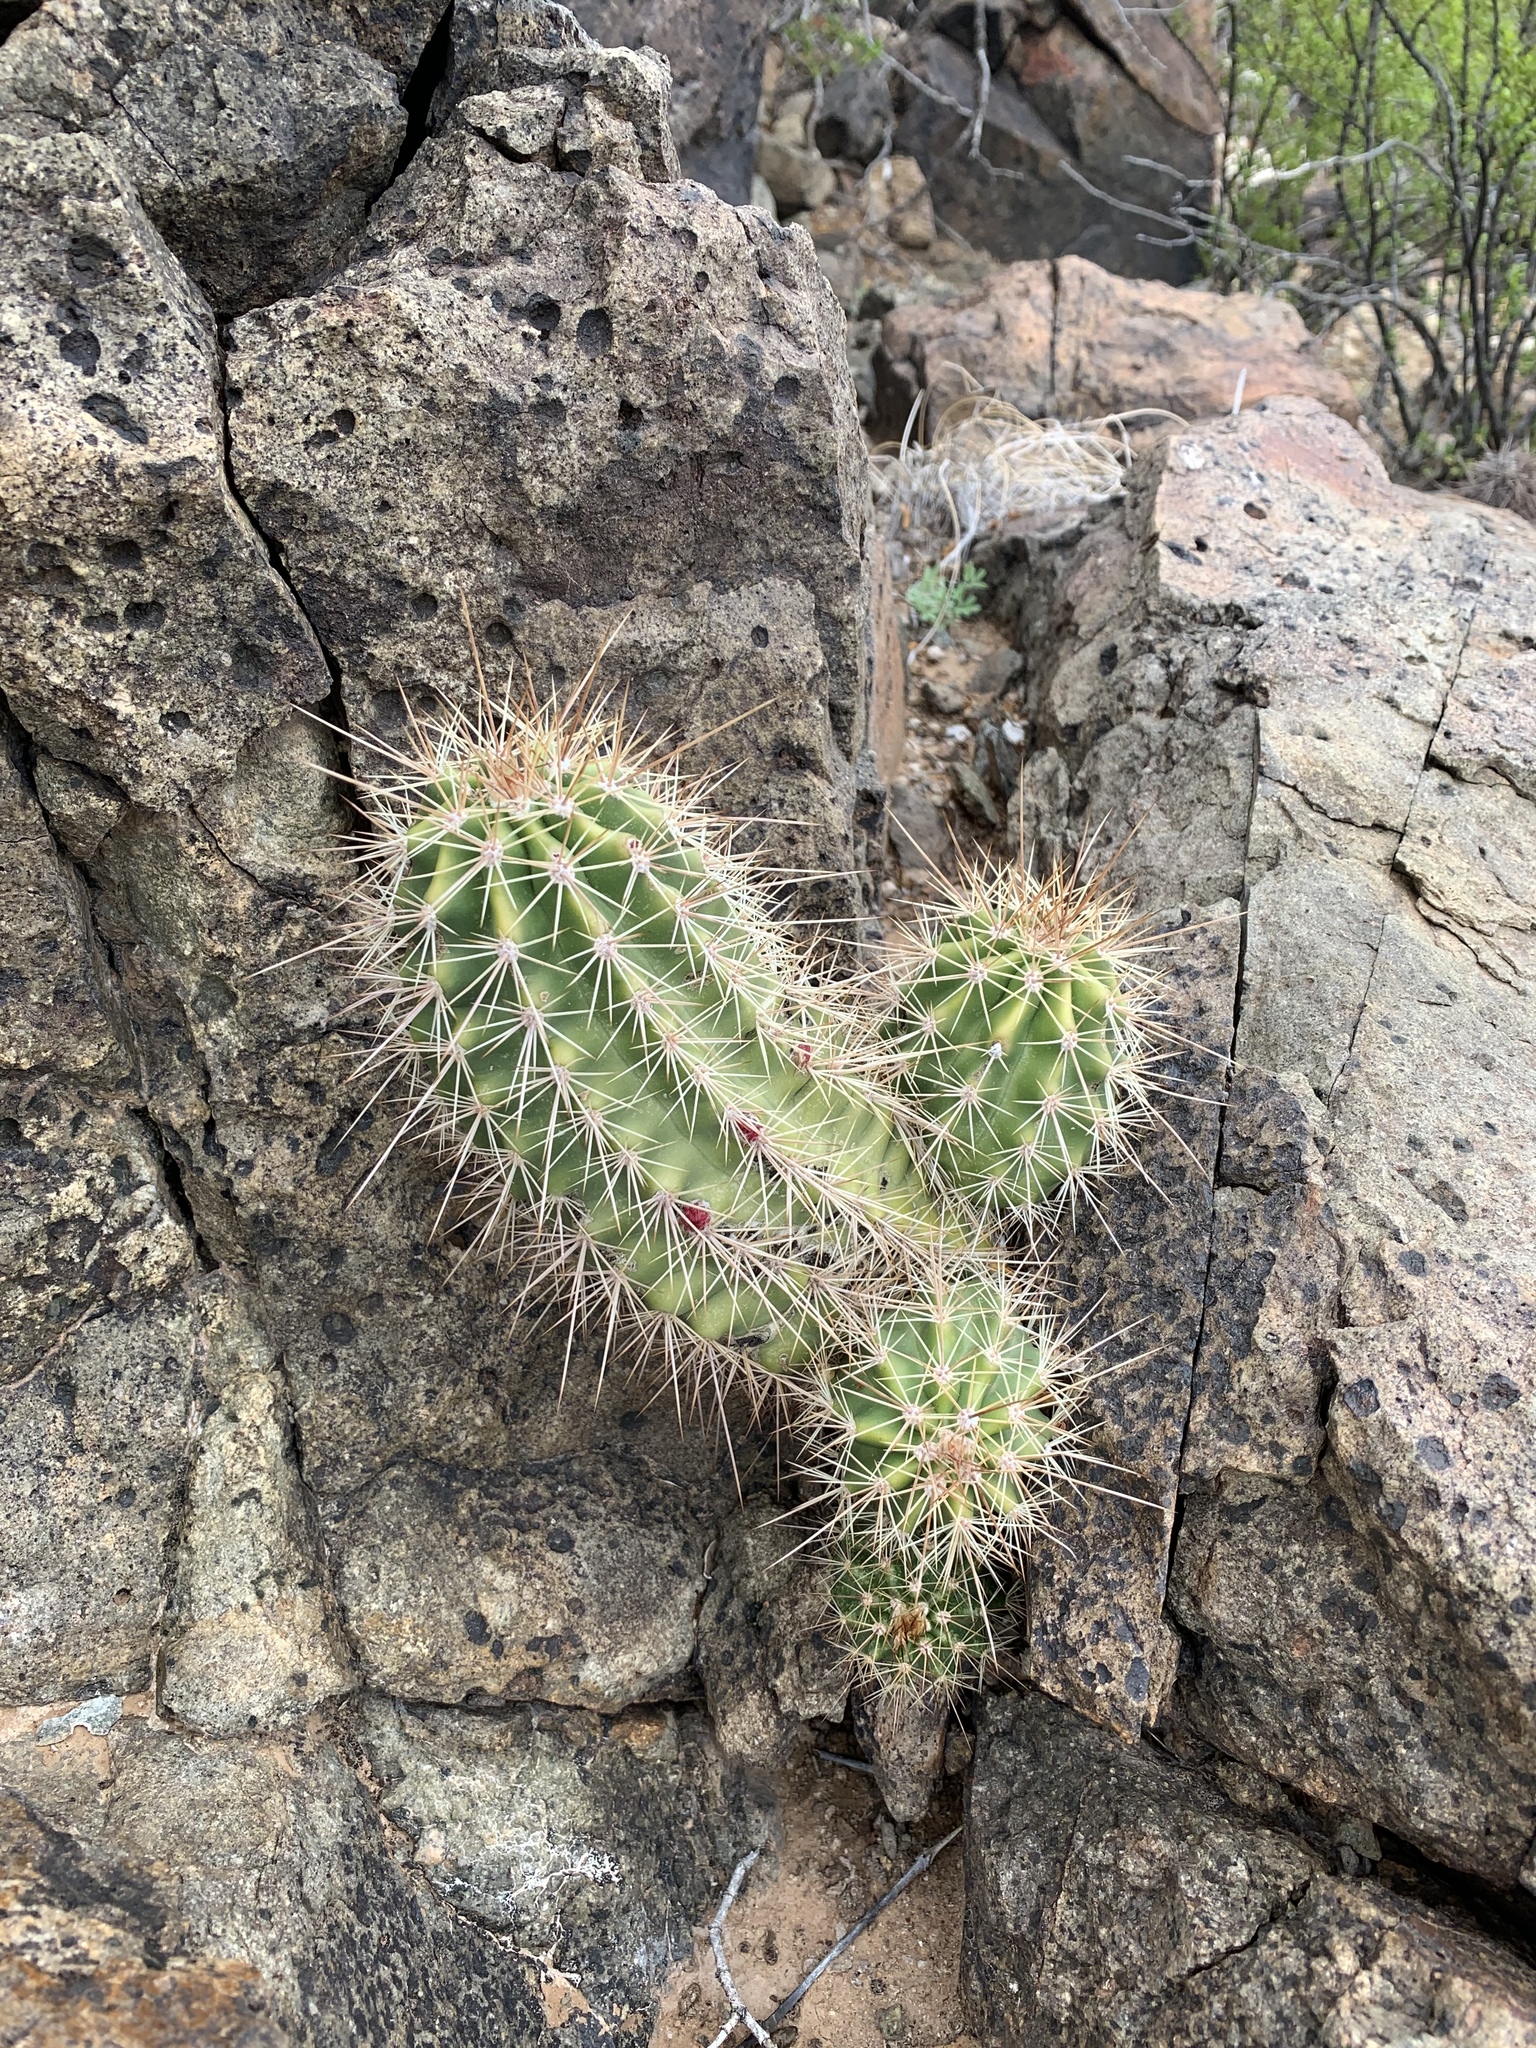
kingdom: Plantae
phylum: Tracheophyta
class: Magnoliopsida
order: Caryophyllales
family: Cactaceae
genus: Echinocereus
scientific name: Echinocereus coccineus
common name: Scarlet hedgehog cactus
